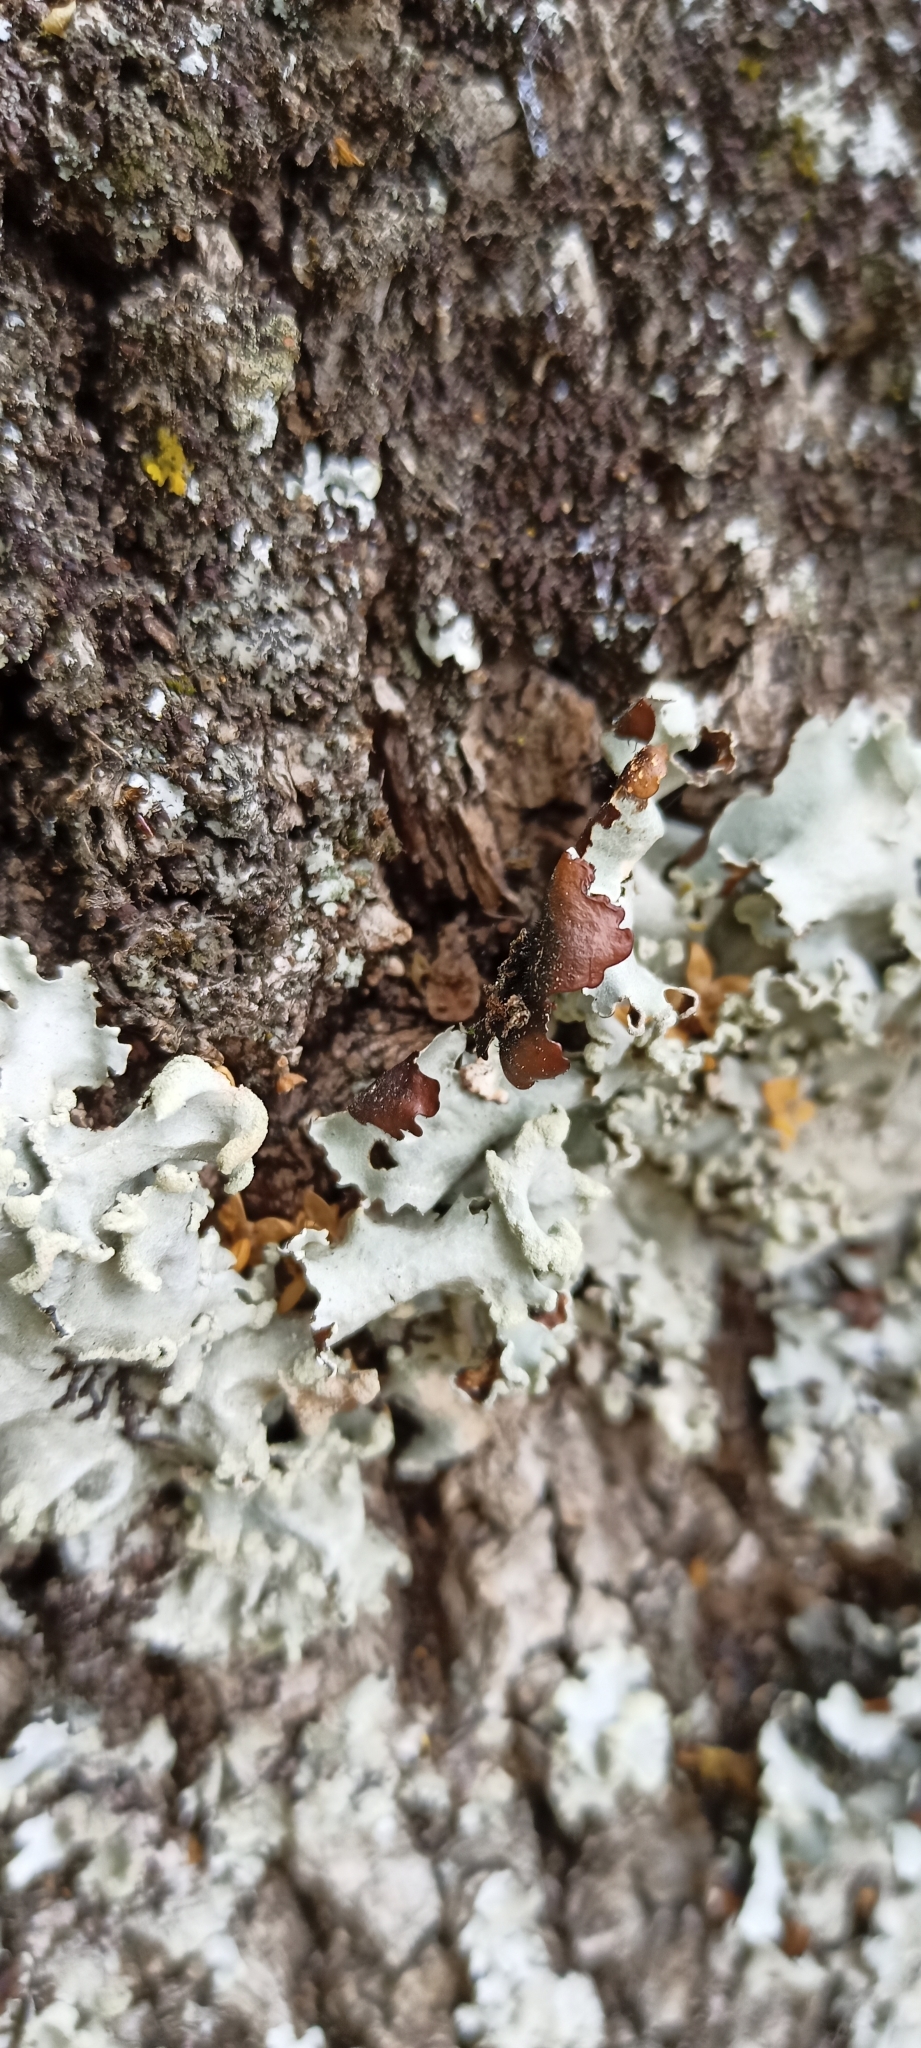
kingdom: Fungi
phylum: Ascomycota
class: Lecanoromycetes
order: Lecanorales
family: Parmeliaceae
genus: Parmotrema
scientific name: Parmotrema reticulatum
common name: Black sheet lichen
